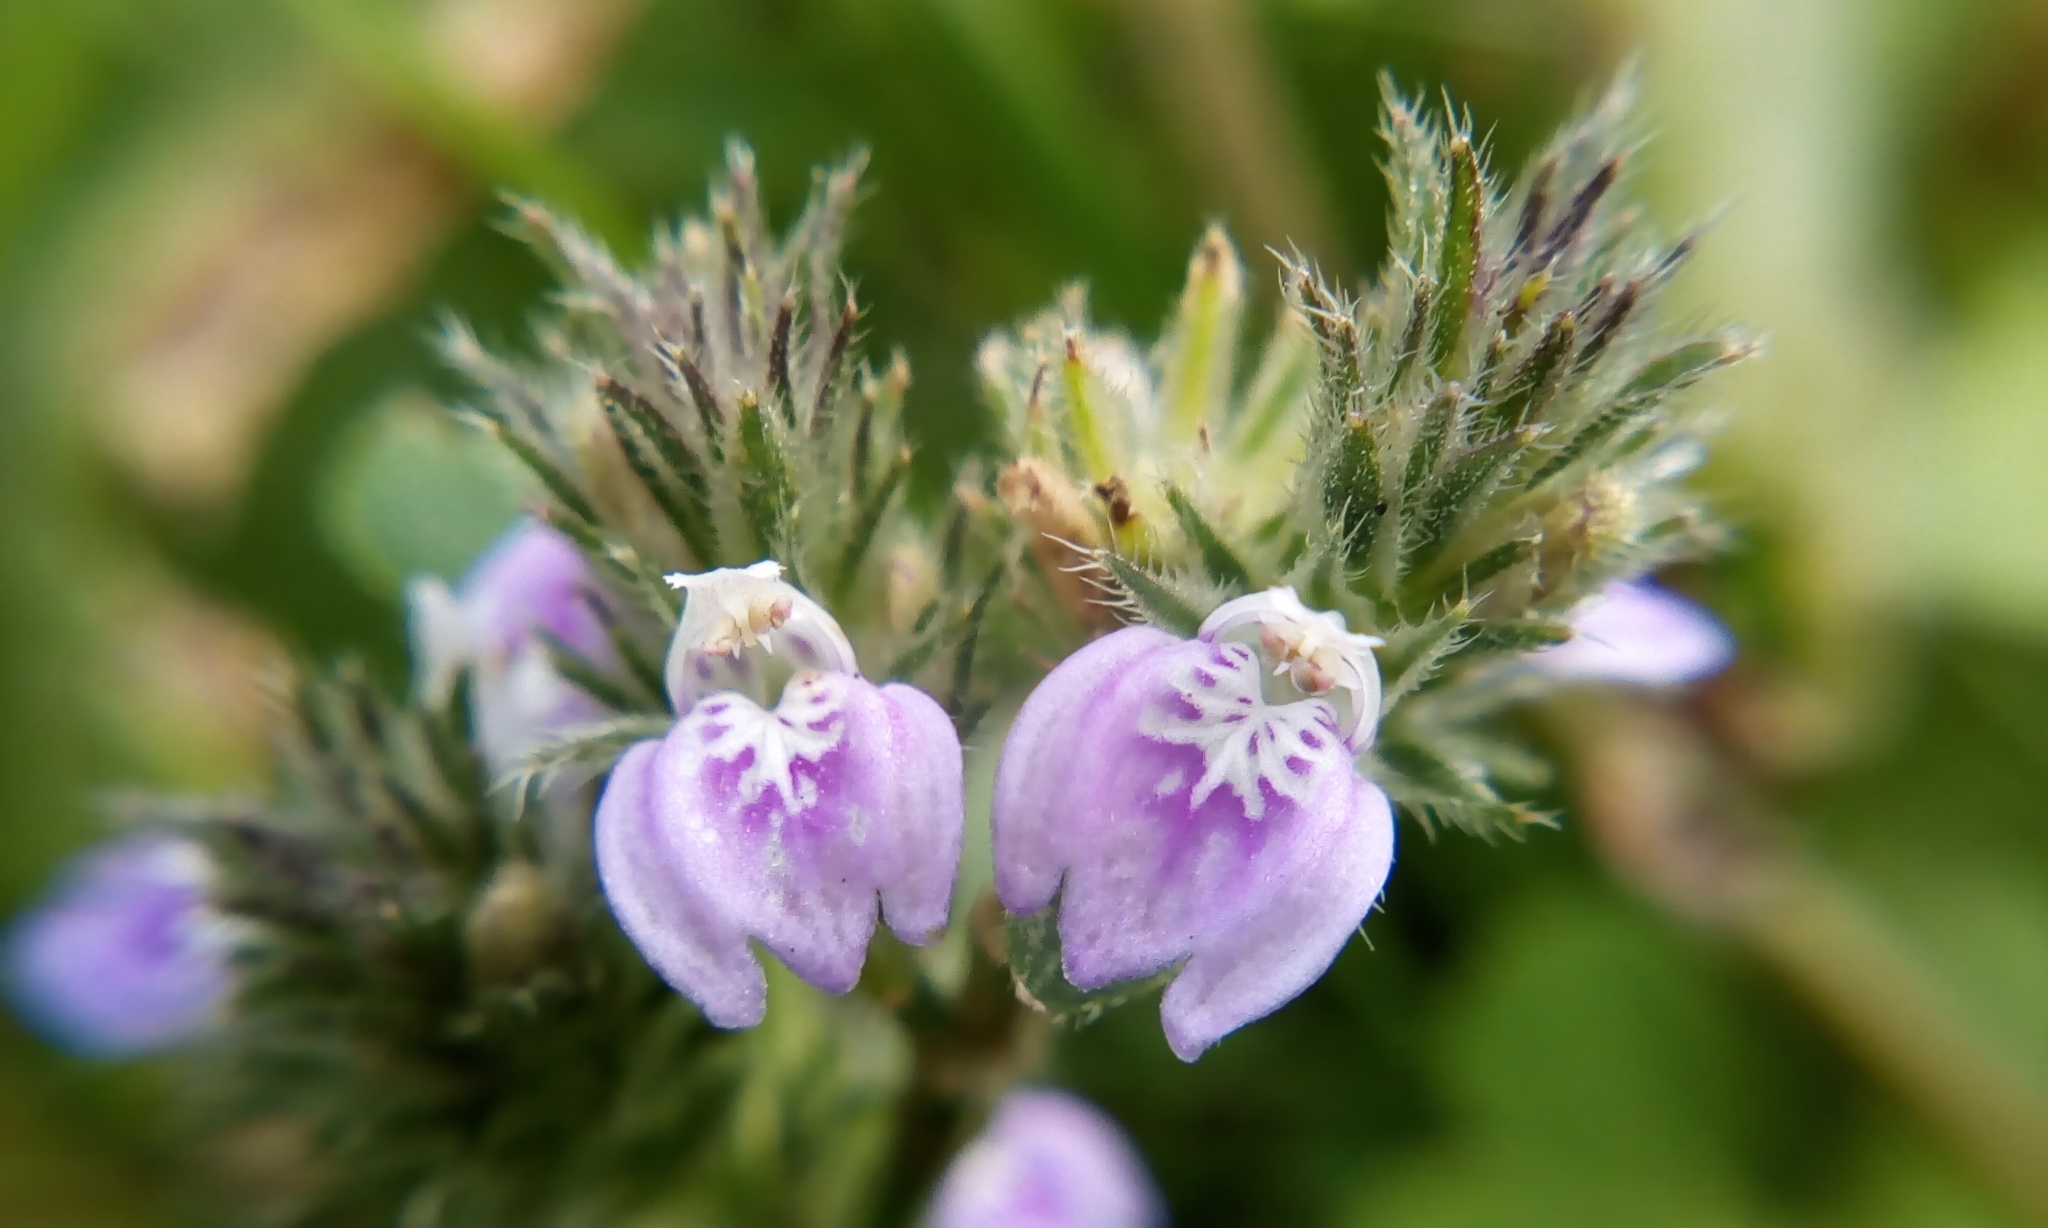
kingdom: Plantae
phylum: Tracheophyta
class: Magnoliopsida
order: Lamiales
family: Acanthaceae
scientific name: Acanthaceae
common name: Acanthaceae
